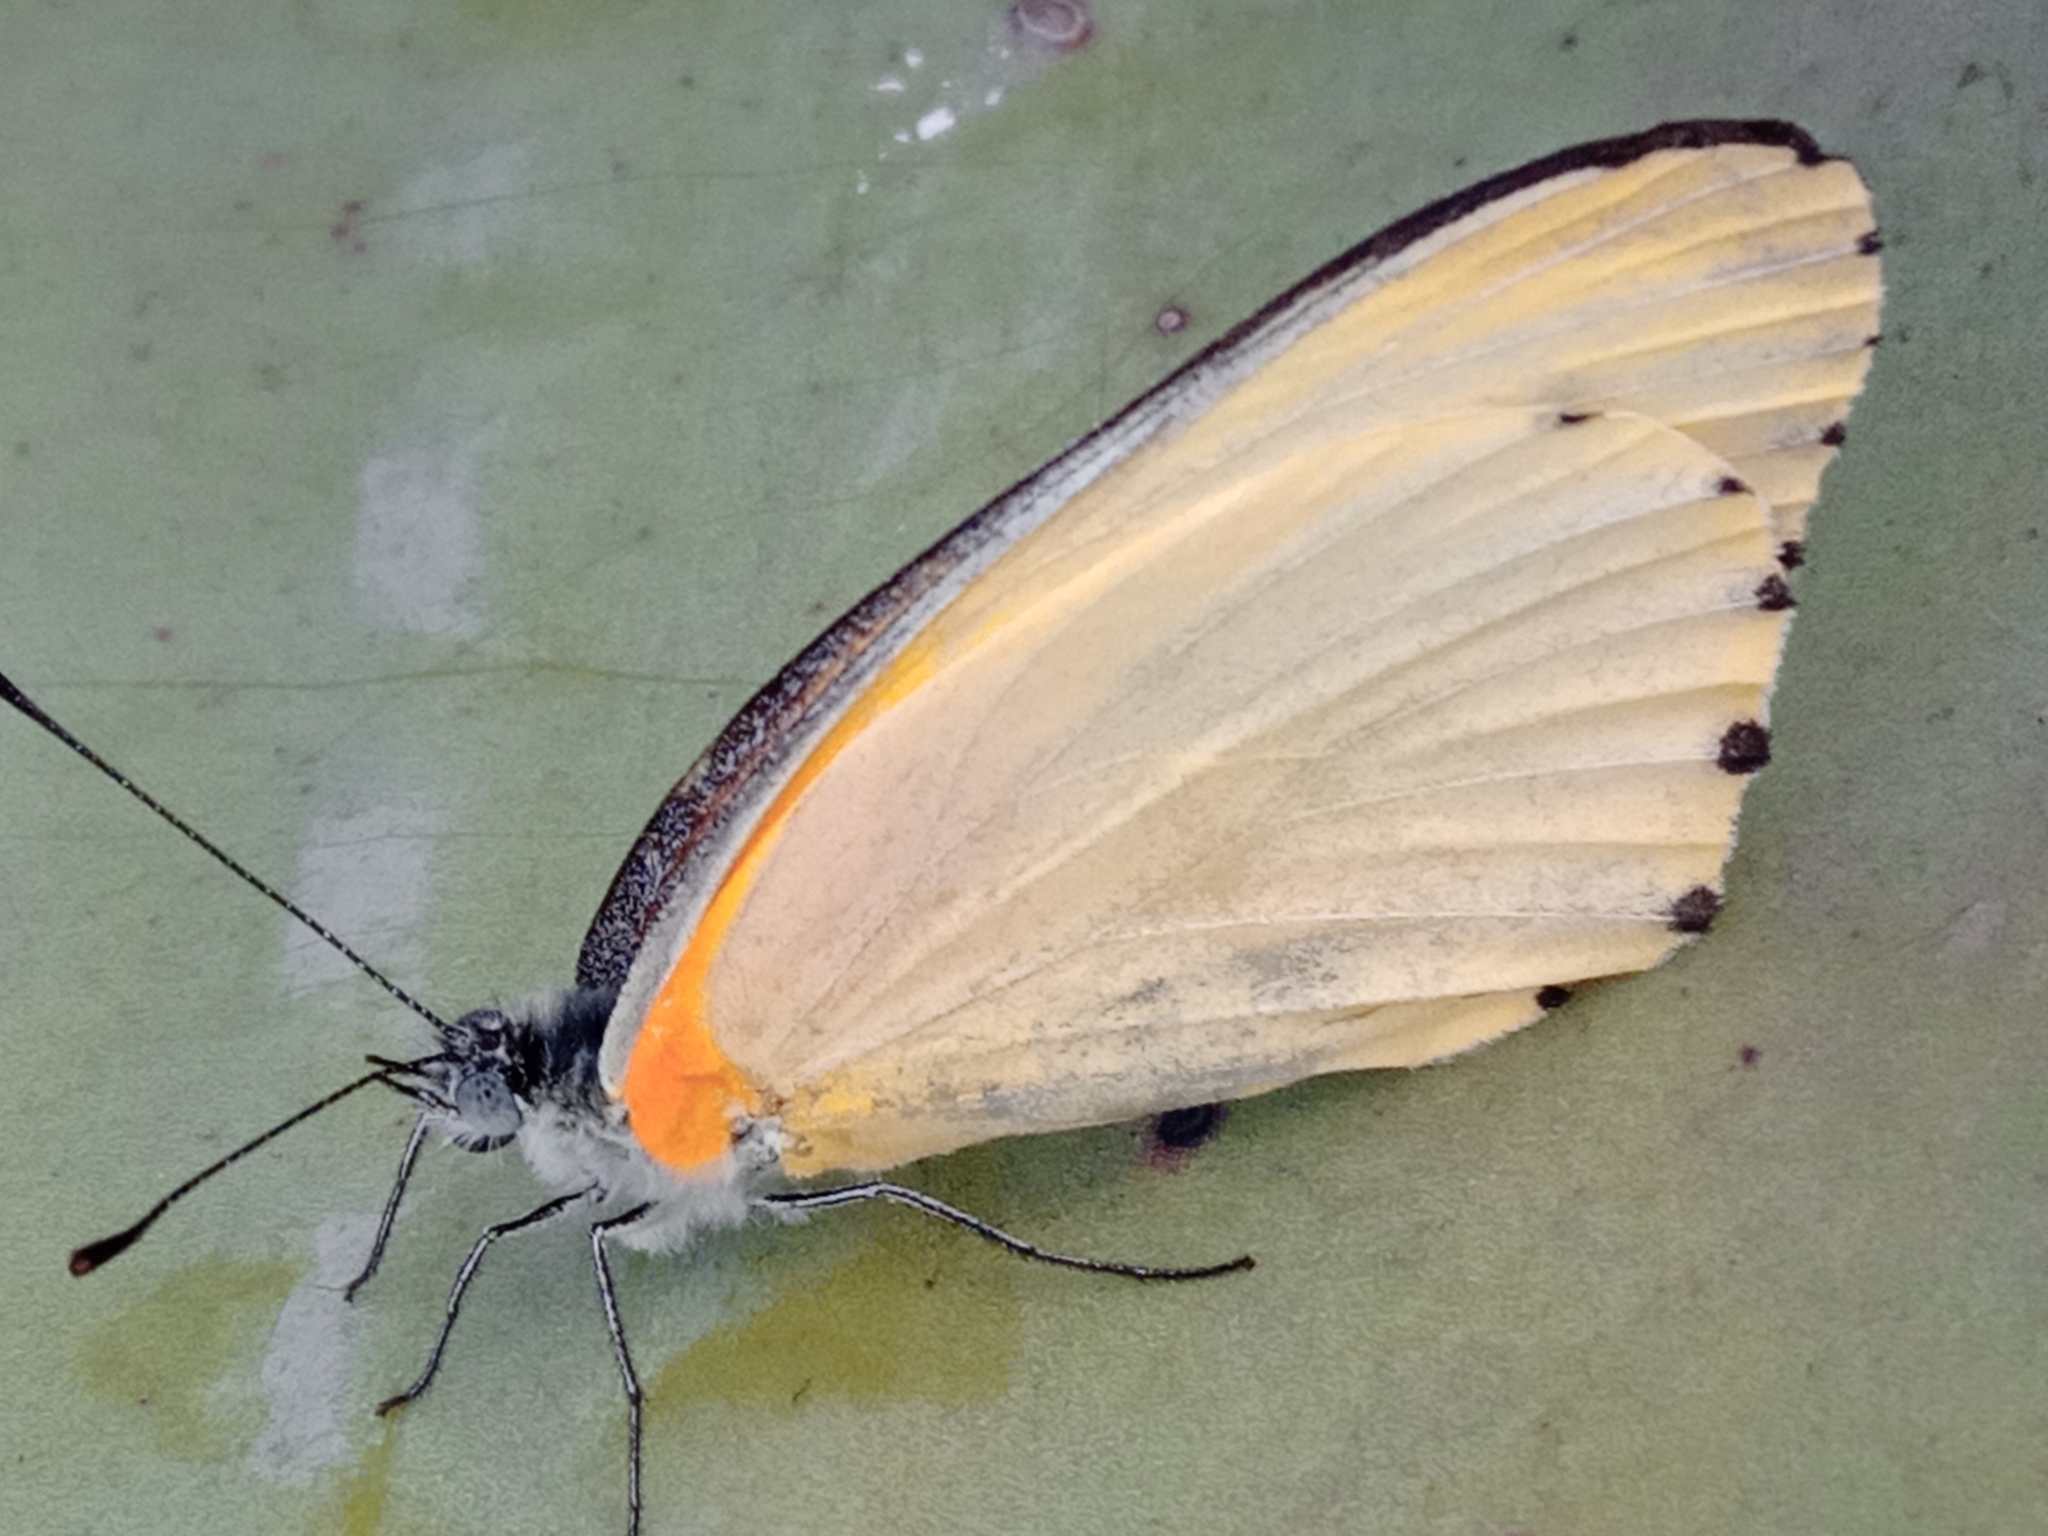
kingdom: Animalia
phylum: Arthropoda
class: Insecta
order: Lepidoptera
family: Pieridae
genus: Mylothris
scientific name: Mylothris agathina
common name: Eastern dotted border
